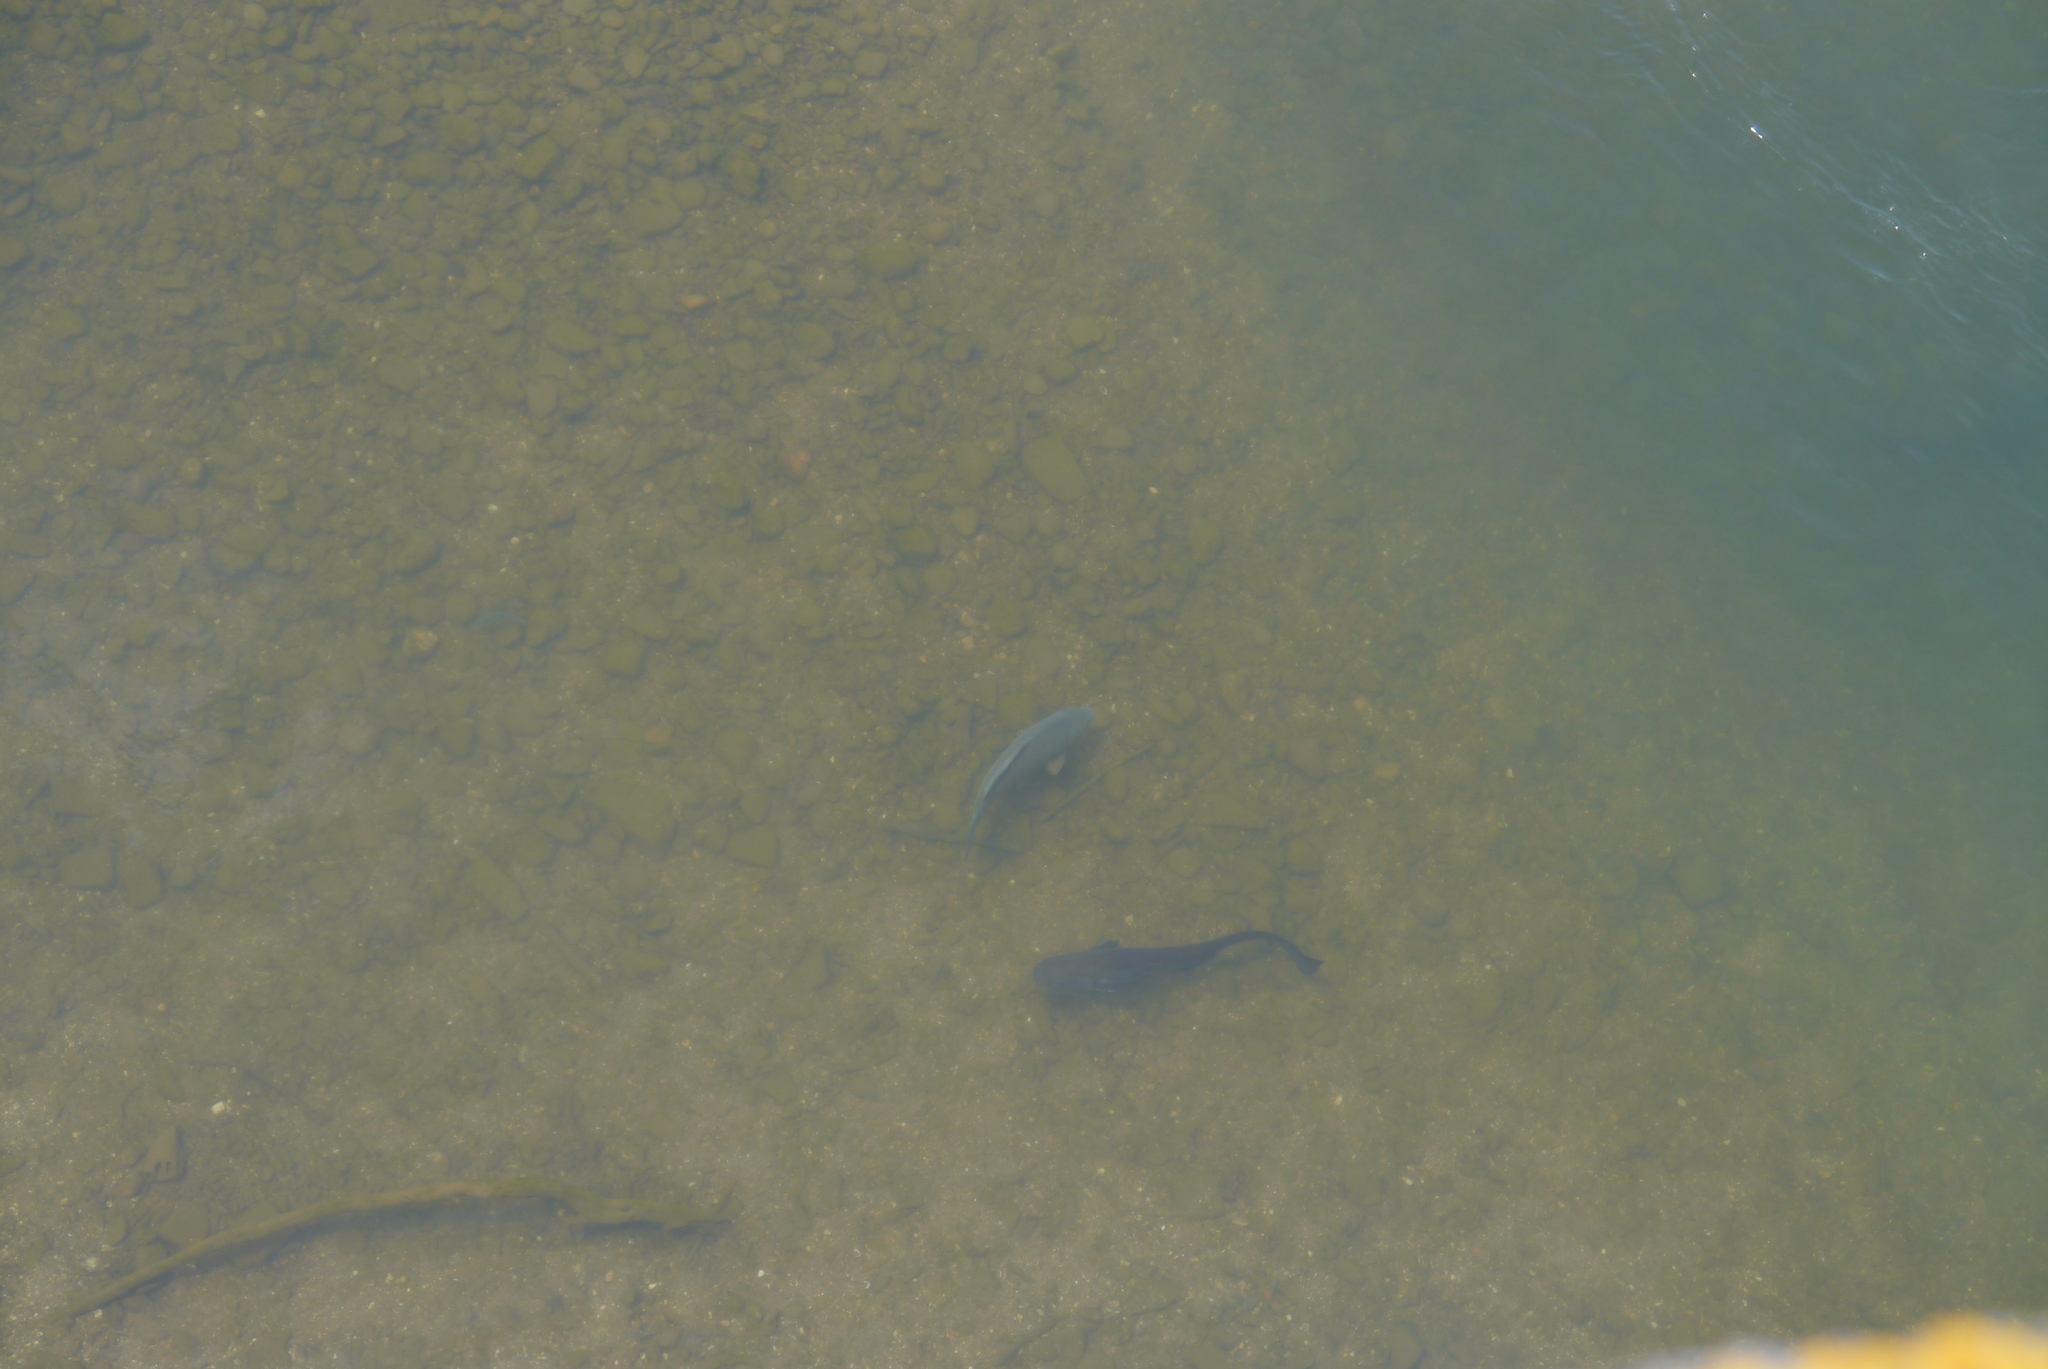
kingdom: Animalia
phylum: Chordata
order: Siluriformes
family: Siluridae
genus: Silurus
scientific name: Silurus glanis
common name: Wels
